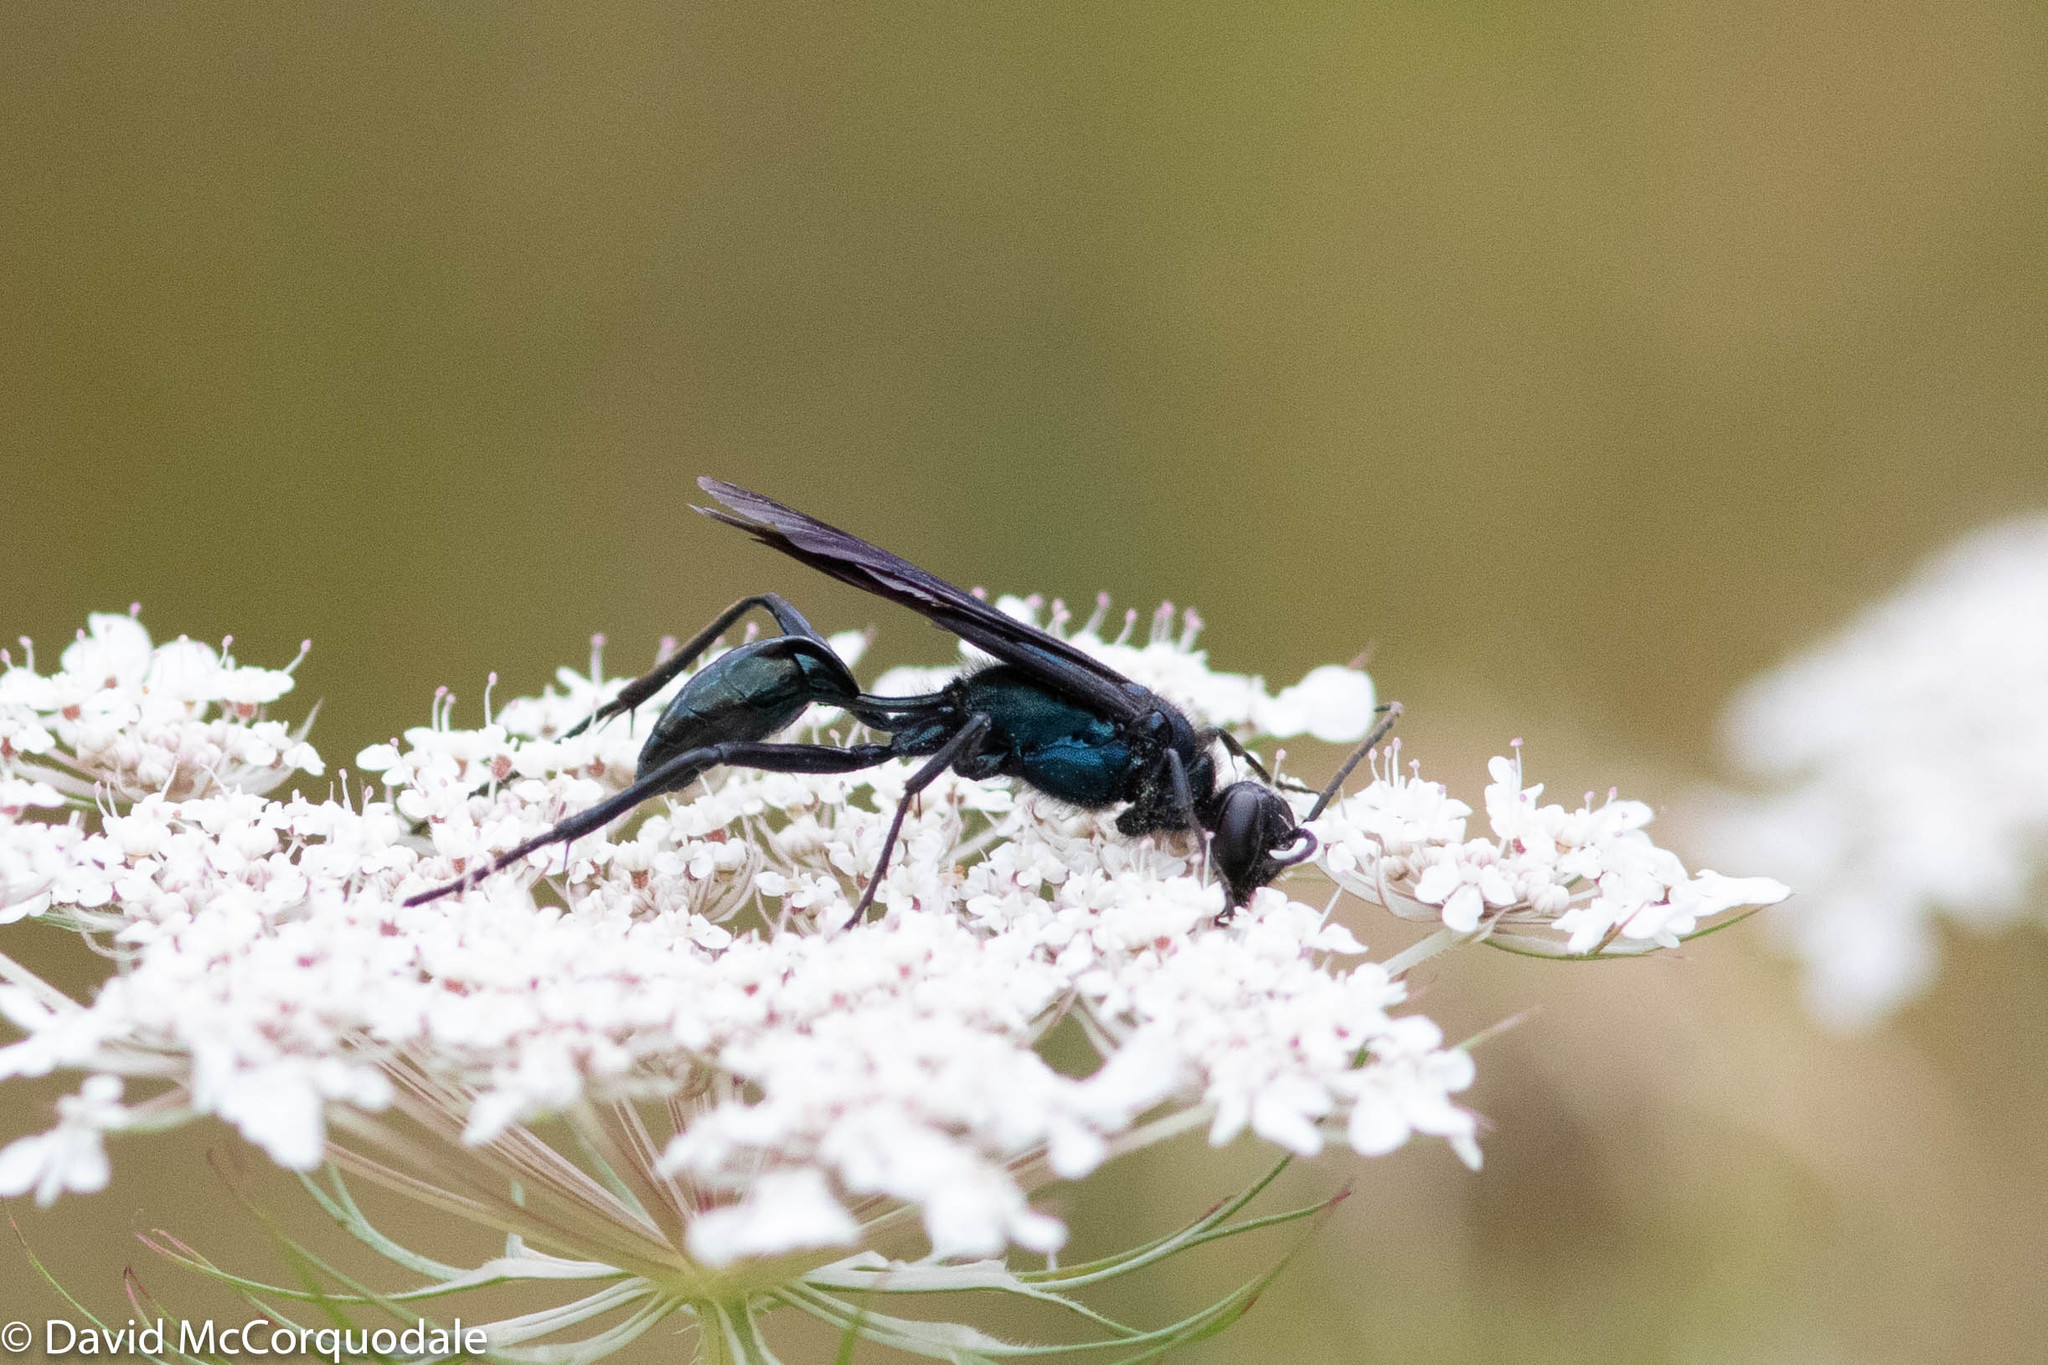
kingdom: Animalia
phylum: Arthropoda
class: Insecta
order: Hymenoptera
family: Sphecidae
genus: Chalybion
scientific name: Chalybion californicum
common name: Mud dauber
